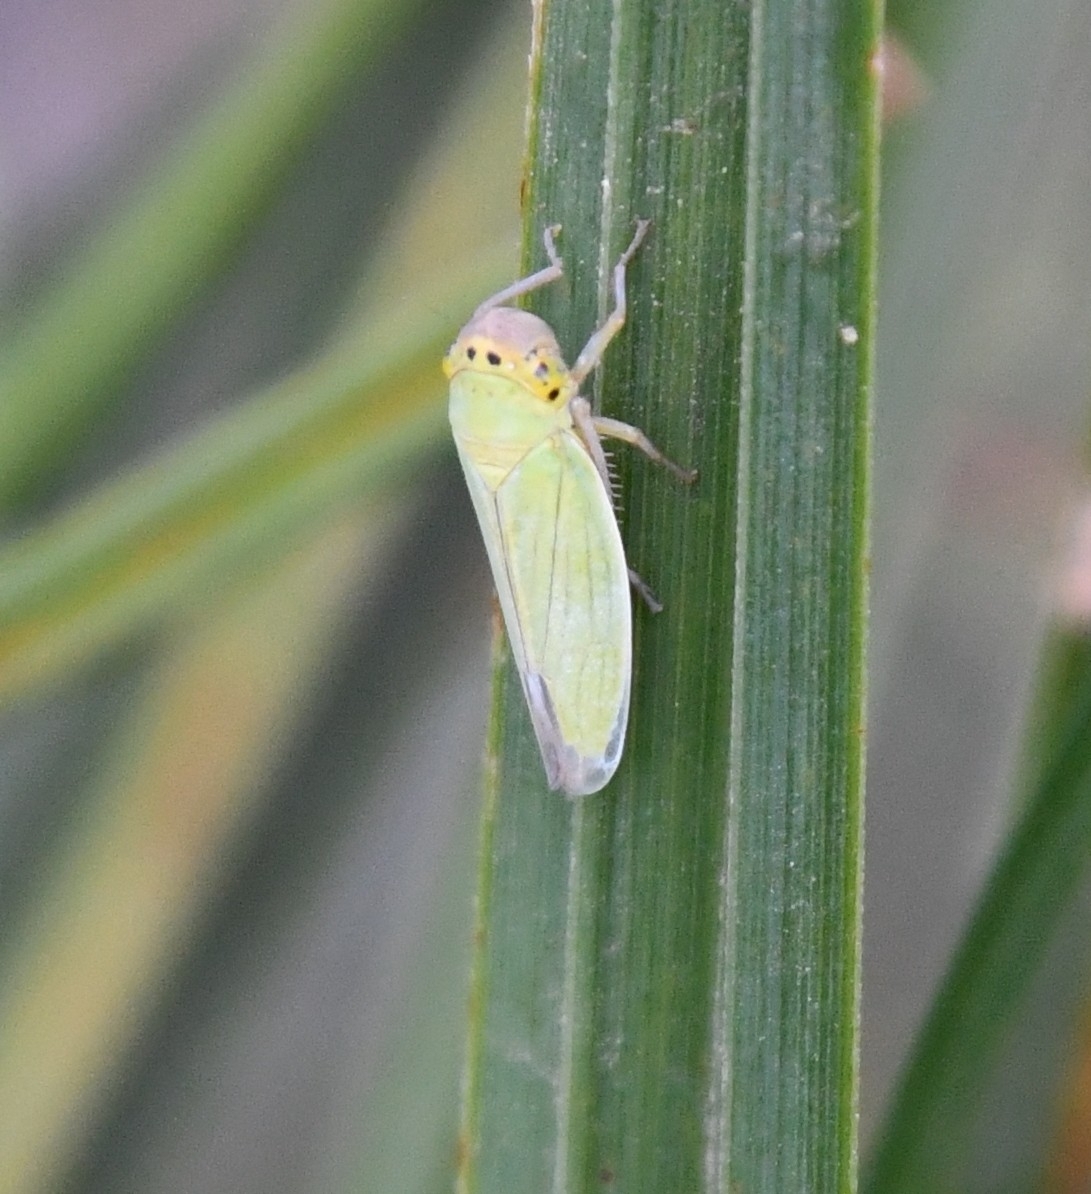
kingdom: Animalia
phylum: Arthropoda
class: Insecta
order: Hemiptera
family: Cicadellidae
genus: Cicadella
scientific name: Cicadella viridis
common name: Leafhopper
